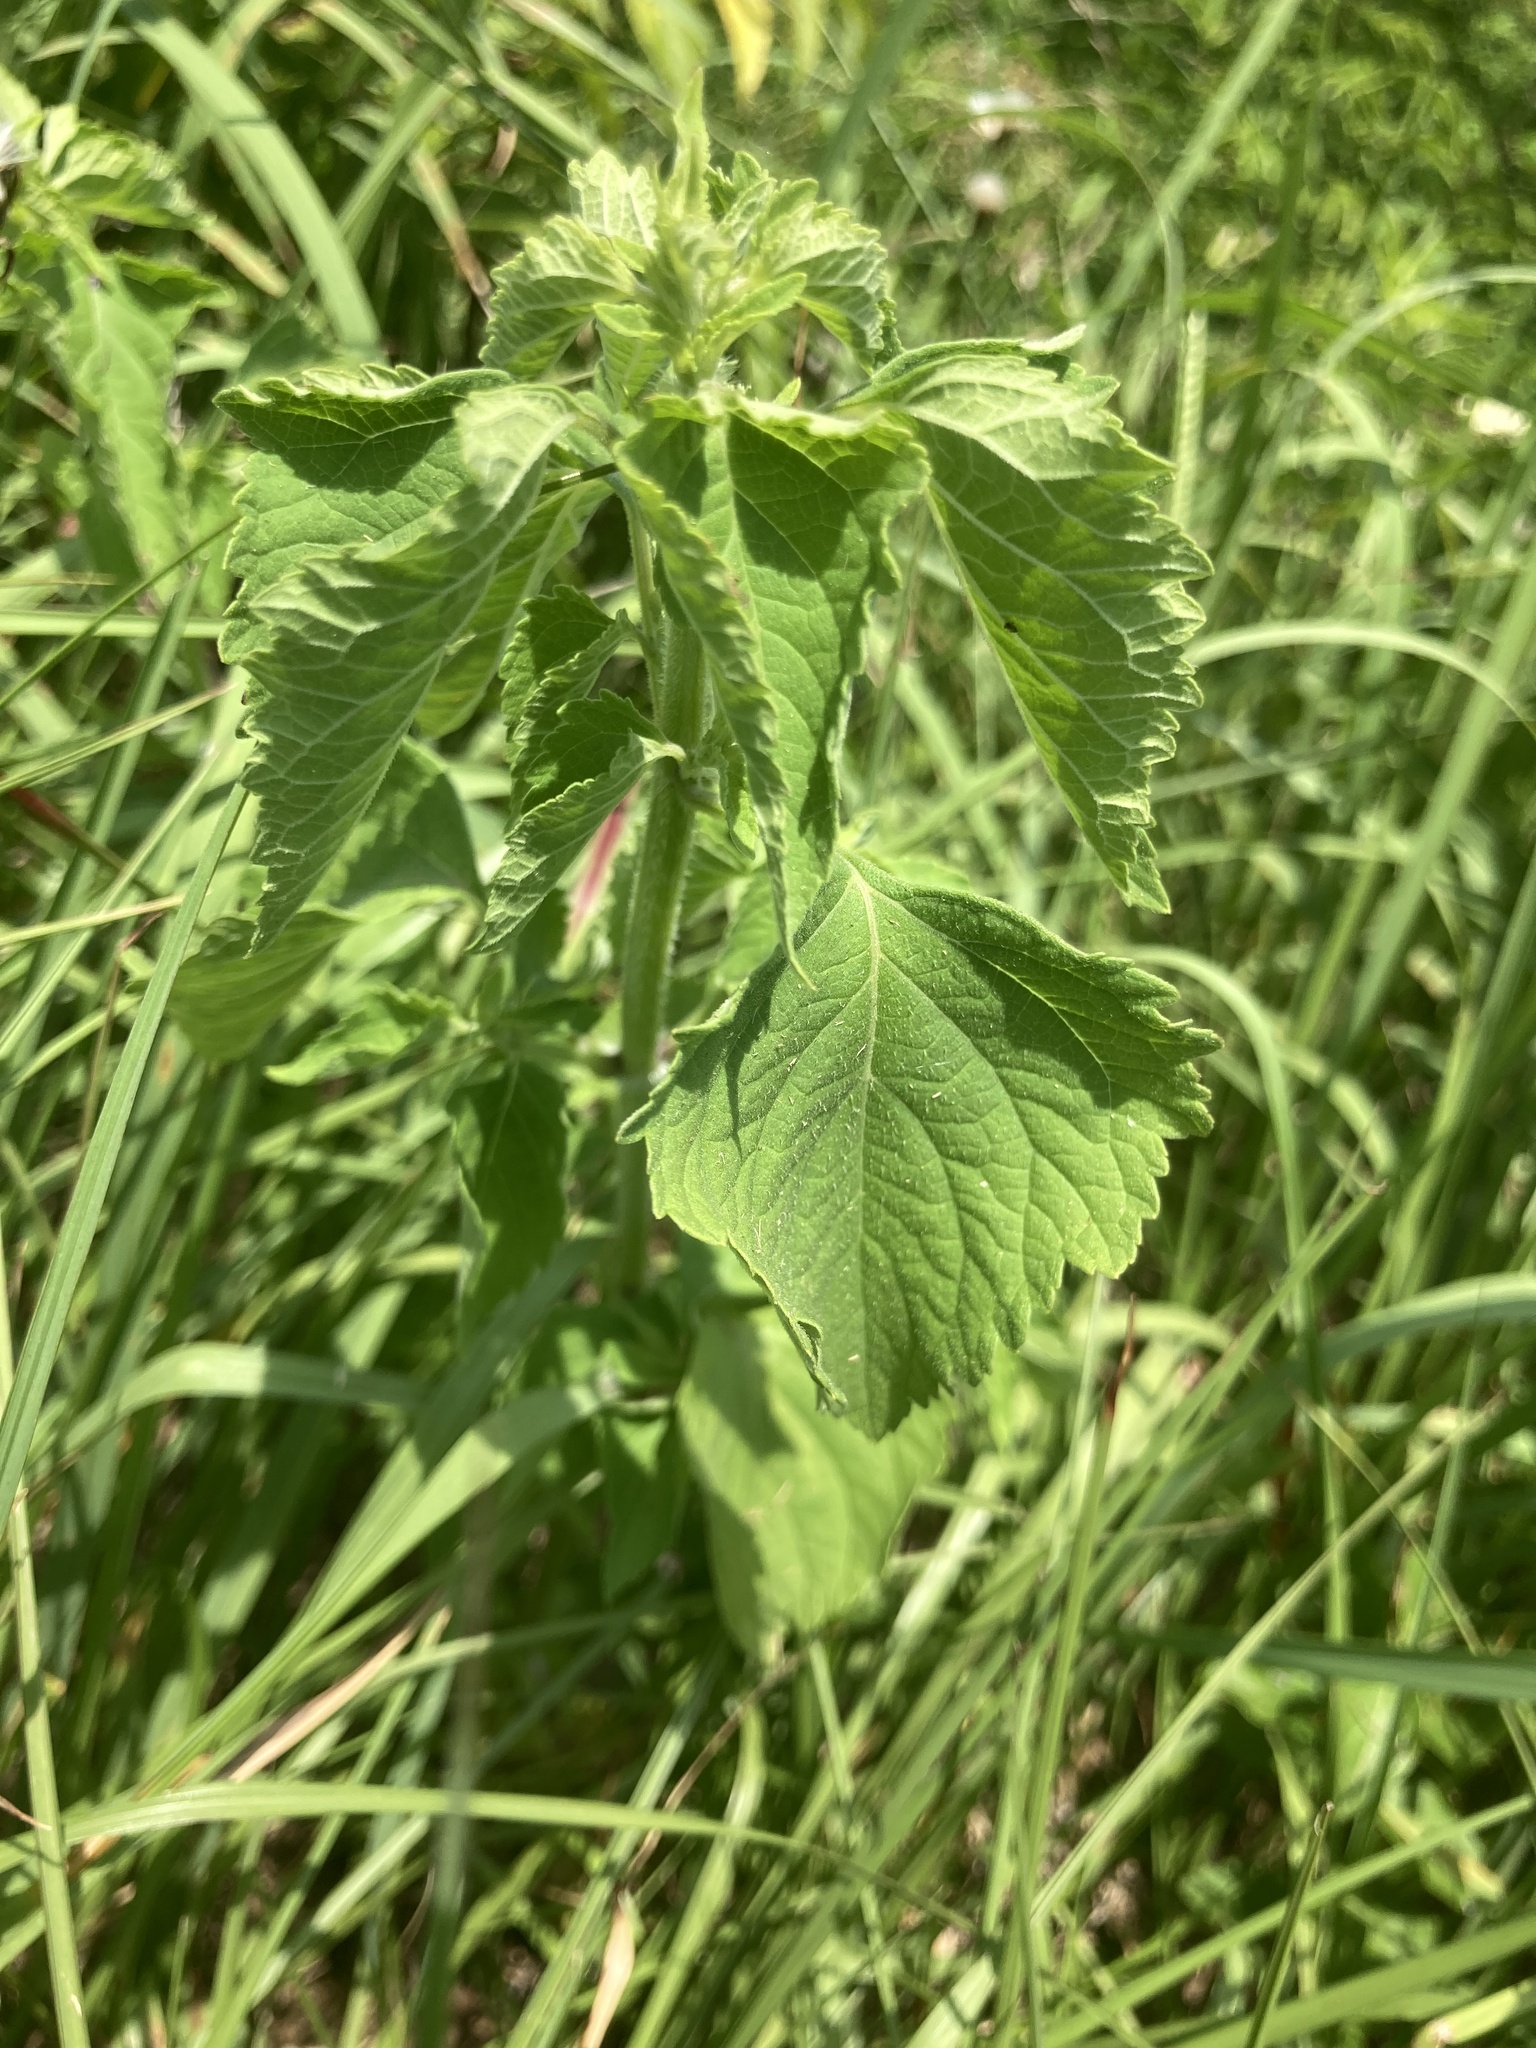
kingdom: Plantae
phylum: Tracheophyta
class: Magnoliopsida
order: Lamiales
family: Lamiaceae
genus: Cantinoa
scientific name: Cantinoa mutabilis
